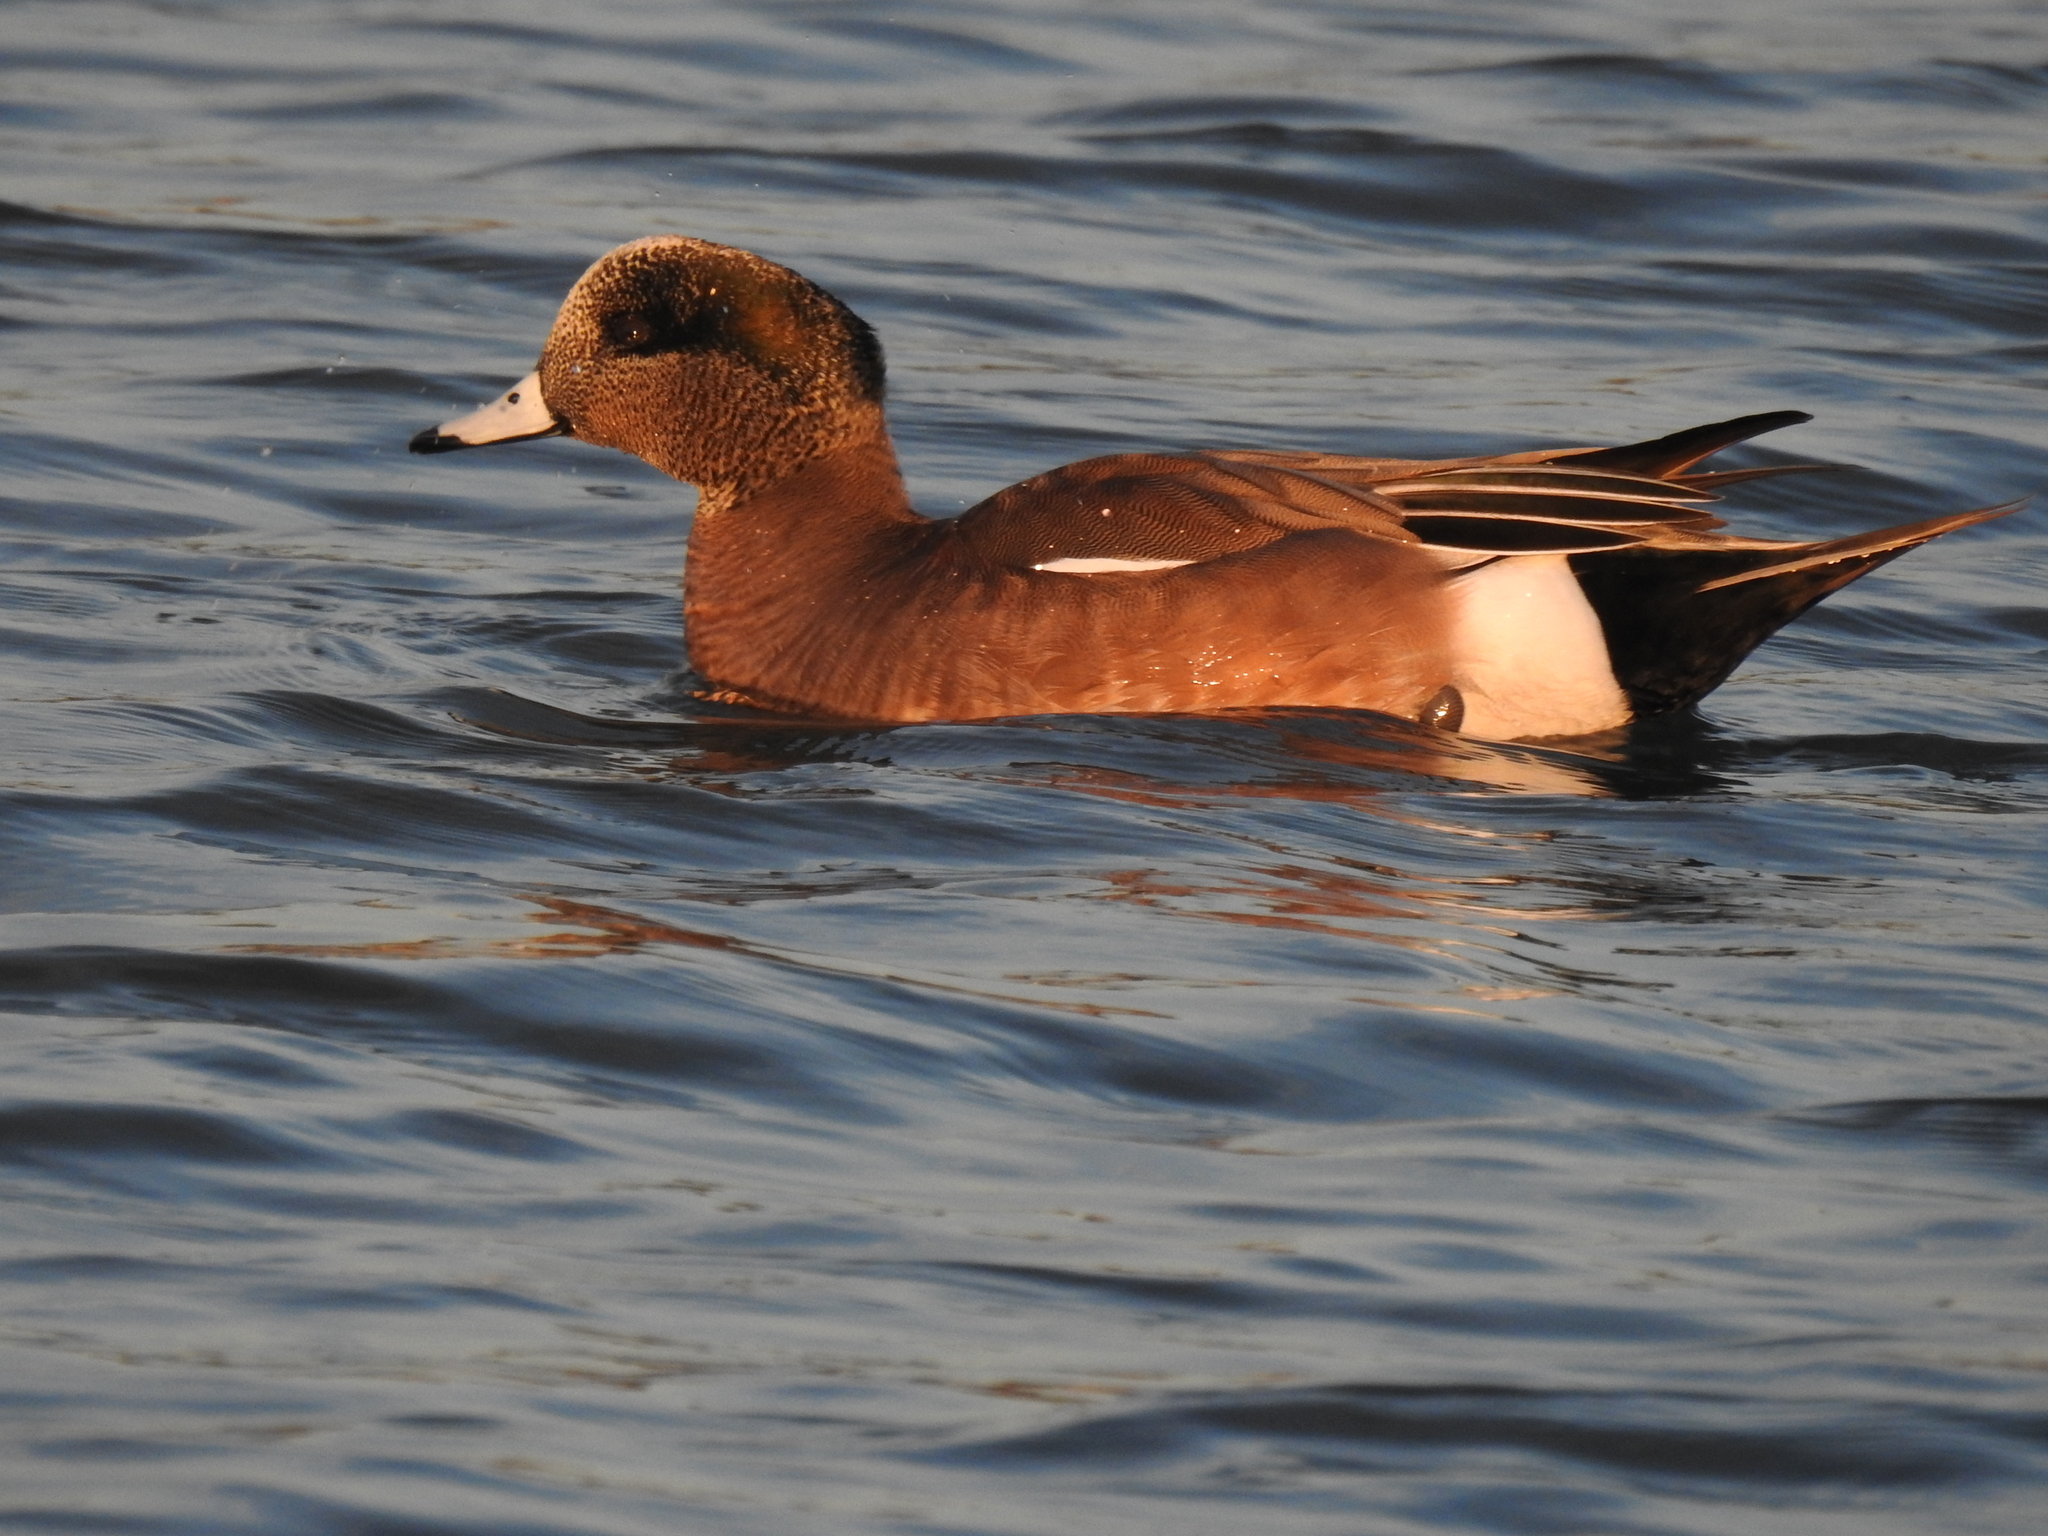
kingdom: Animalia
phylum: Chordata
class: Aves
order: Anseriformes
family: Anatidae
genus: Mareca
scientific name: Mareca americana
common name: American wigeon
